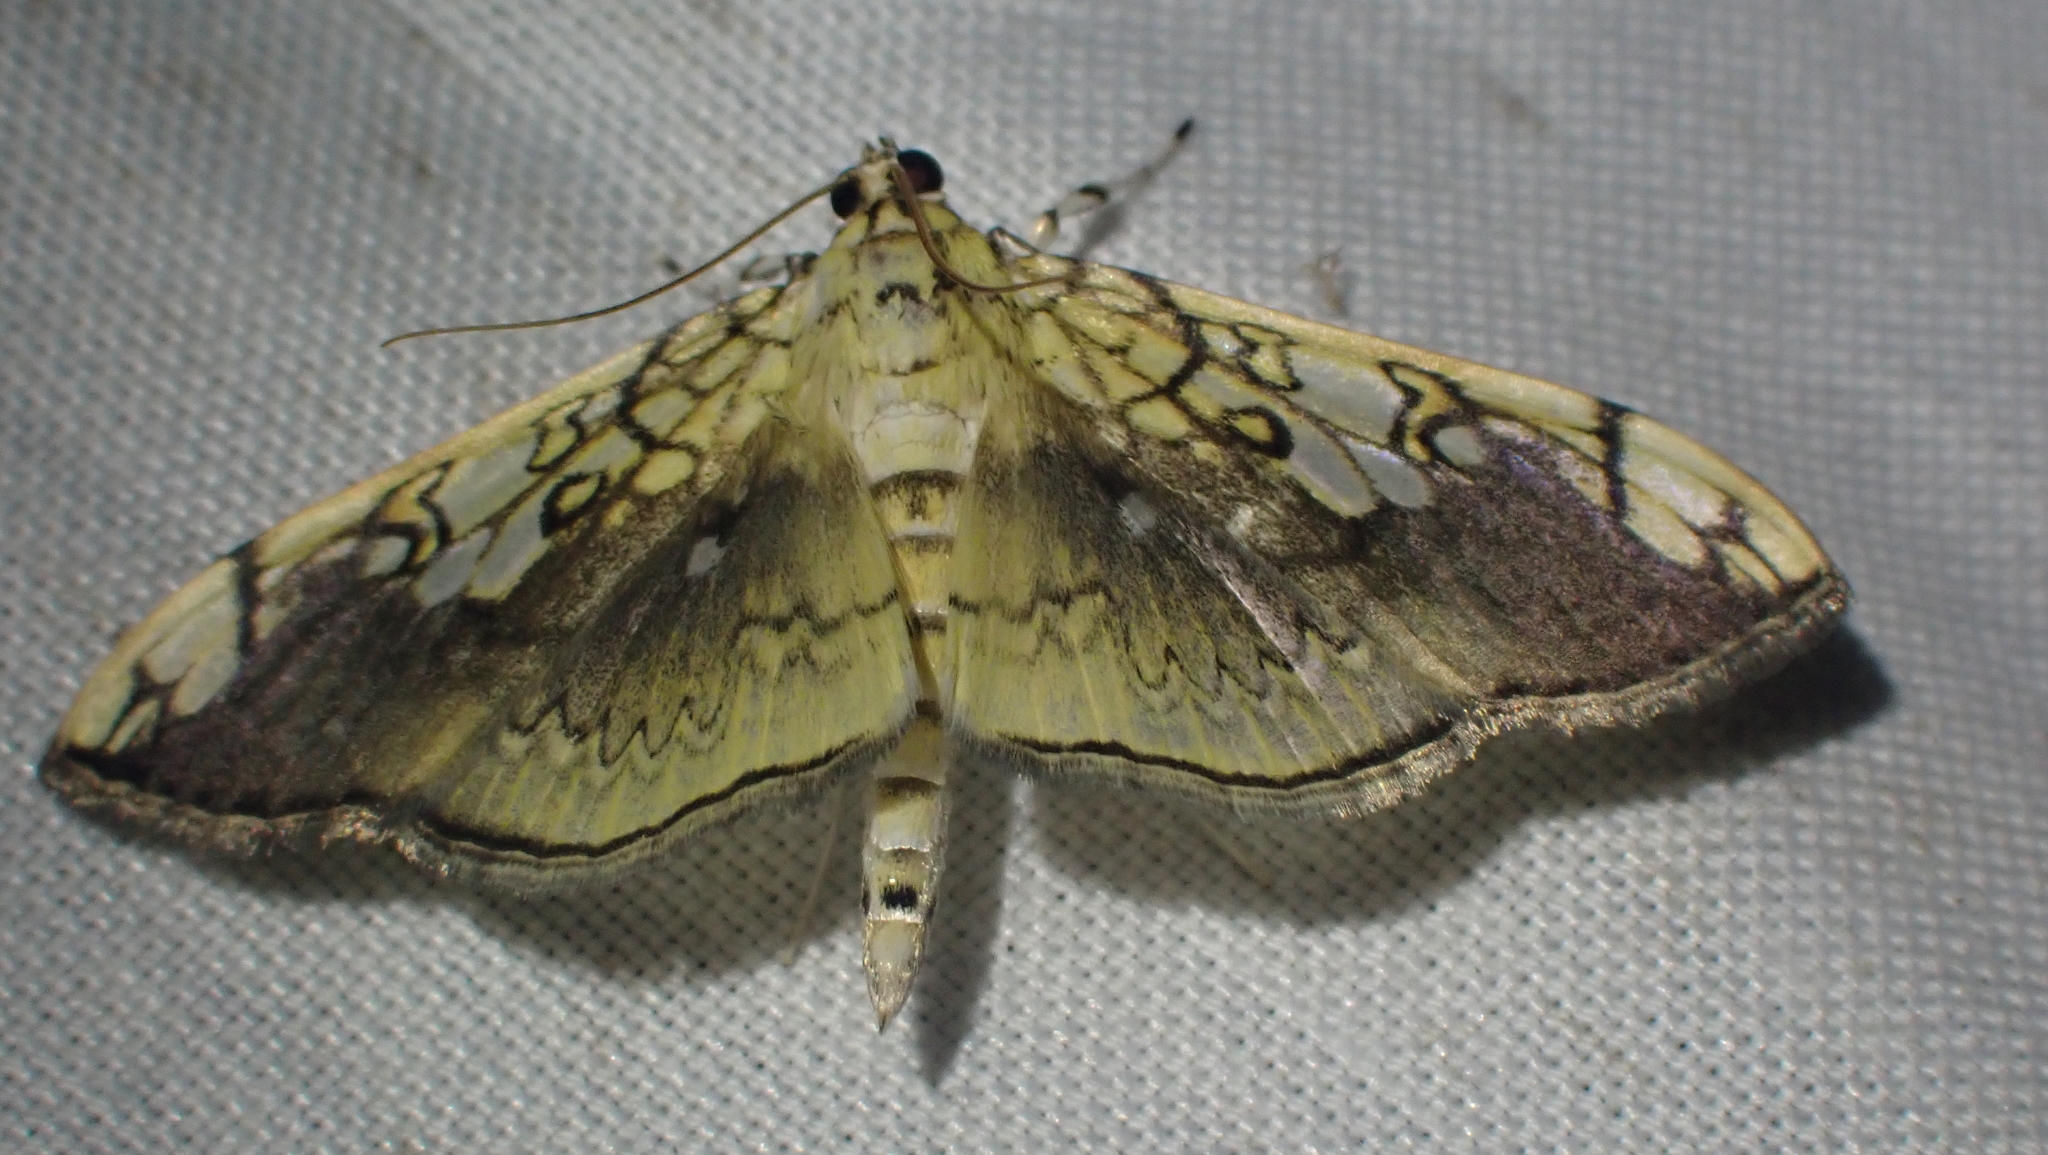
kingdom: Animalia
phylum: Arthropoda
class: Insecta
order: Lepidoptera
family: Crambidae
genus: Pantographa
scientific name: Pantographa limata
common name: Basswood leafroller moth
